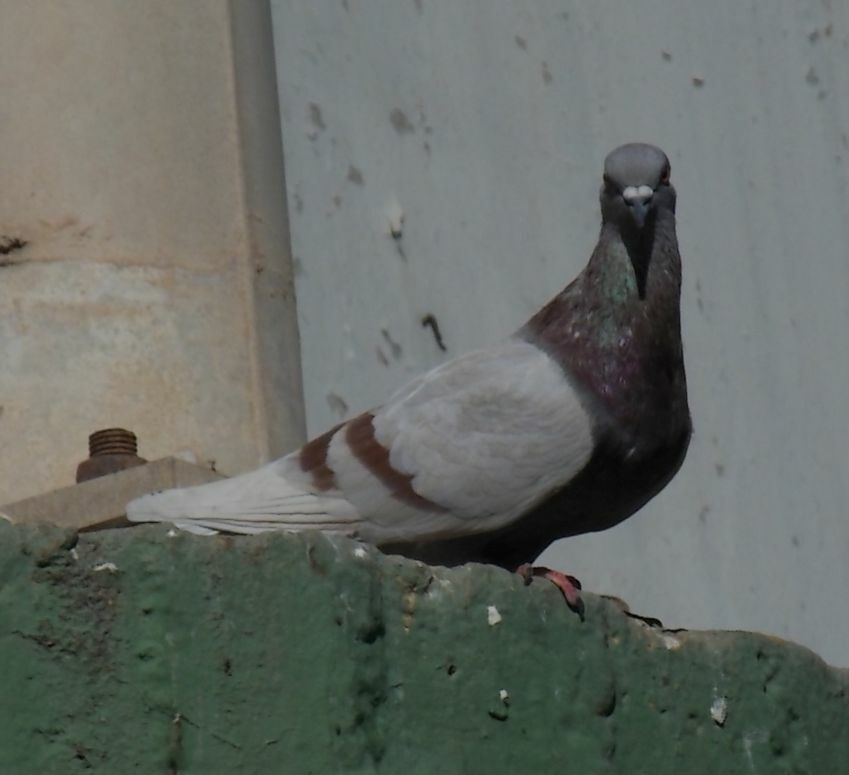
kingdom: Animalia
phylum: Chordata
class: Aves
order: Columbiformes
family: Columbidae
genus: Columba
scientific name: Columba livia
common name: Rock pigeon
